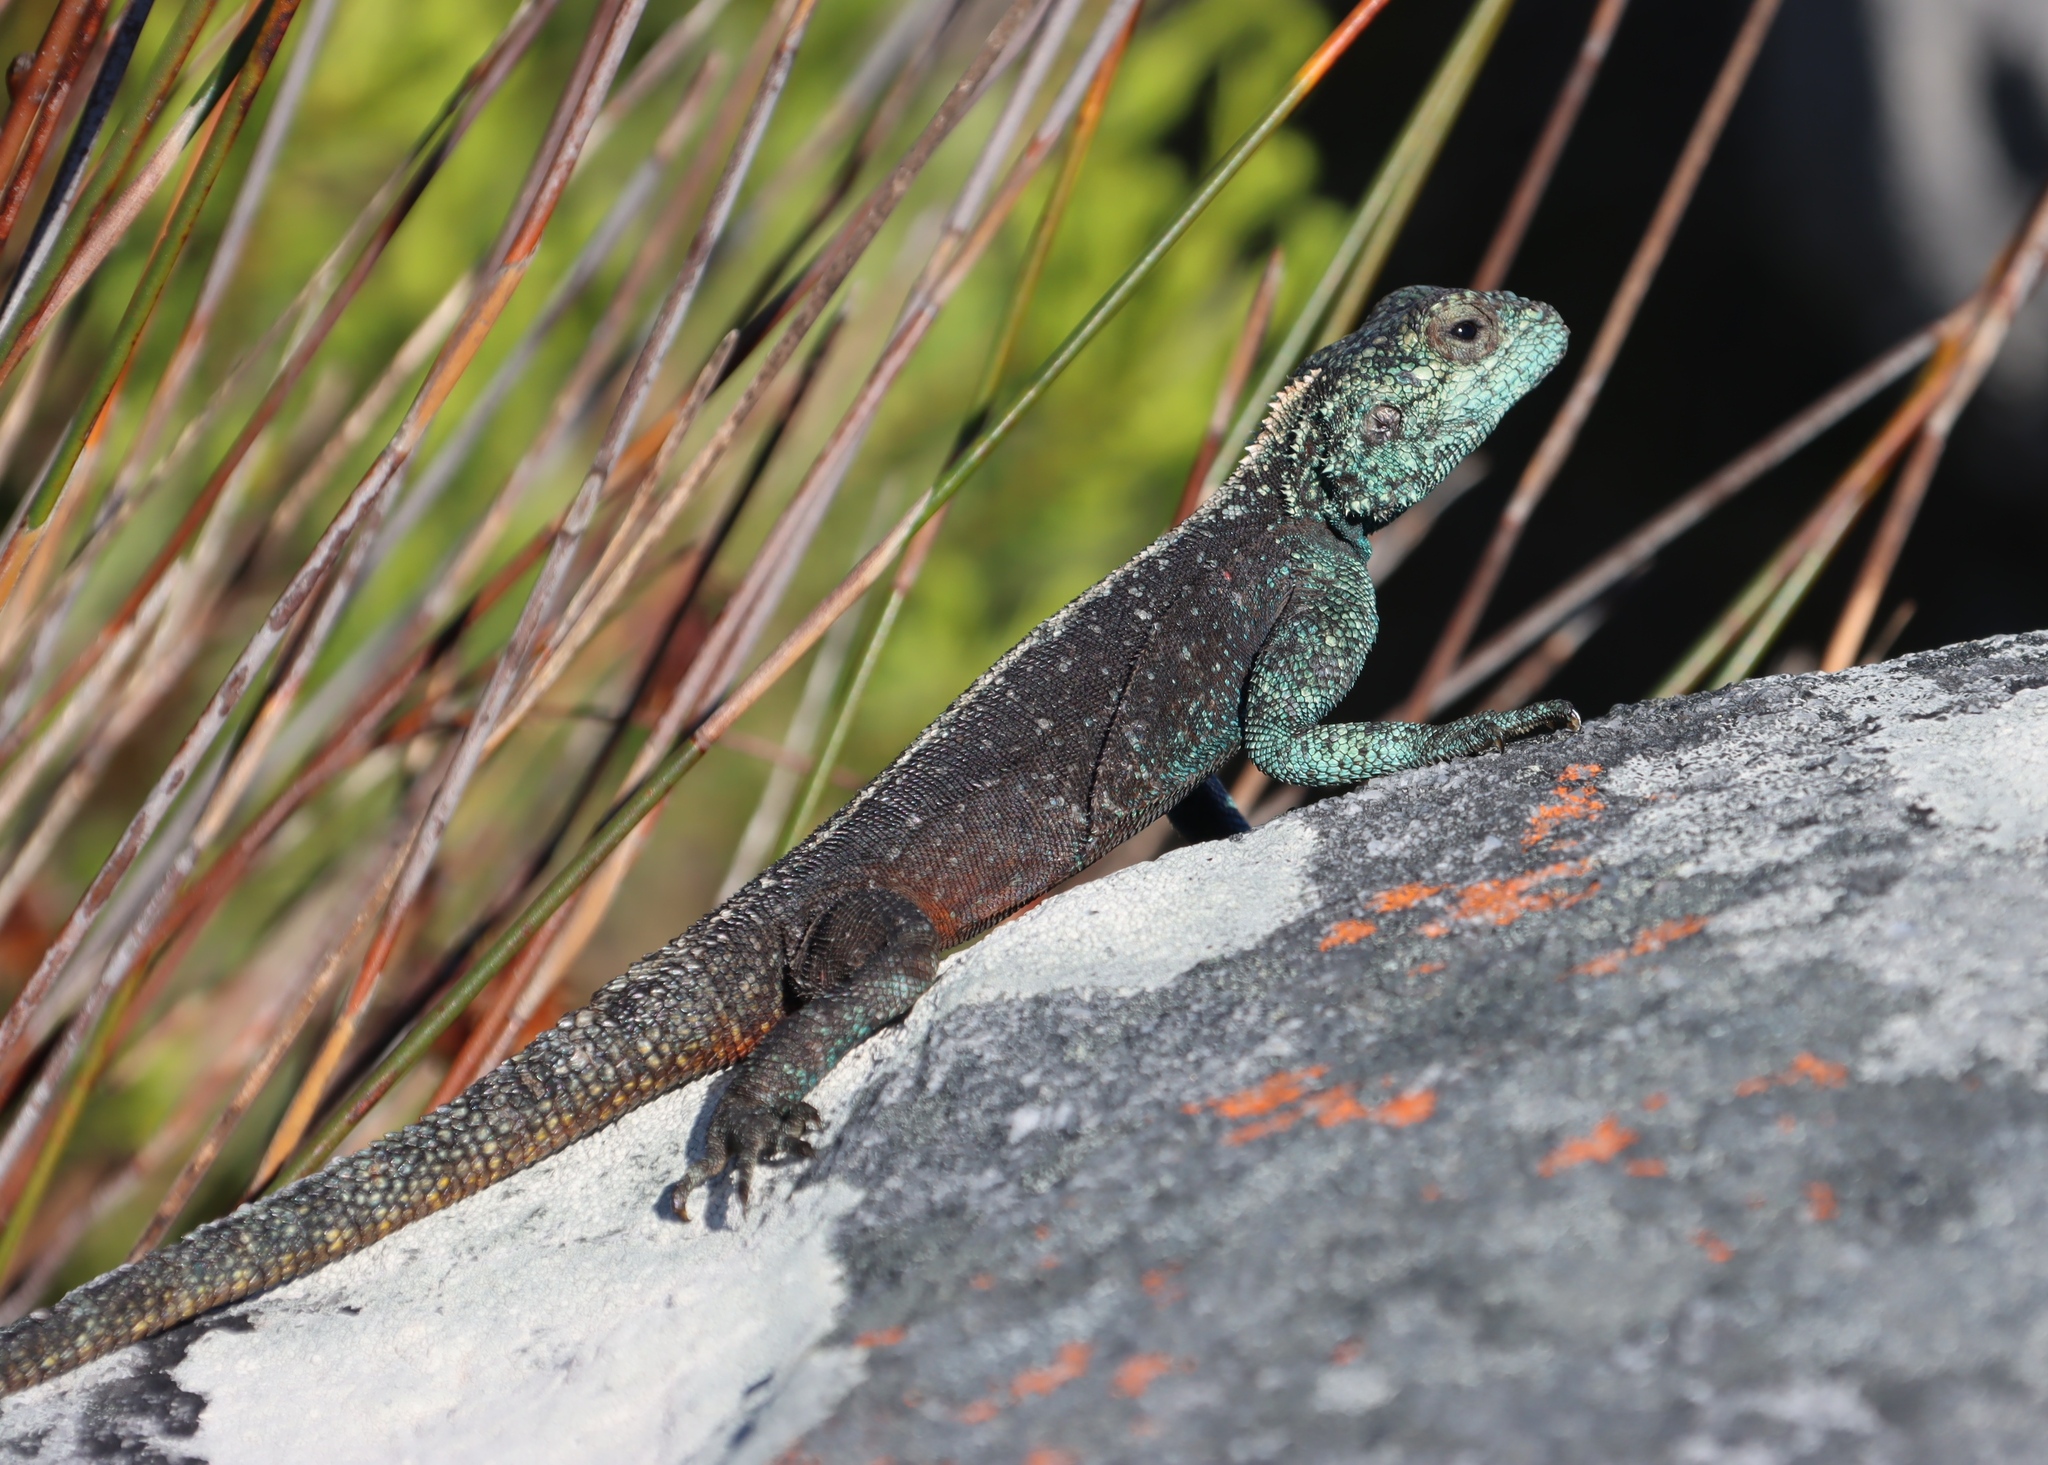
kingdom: Animalia
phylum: Chordata
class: Squamata
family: Agamidae
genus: Agama
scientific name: Agama atra
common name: Southern african rock agama
